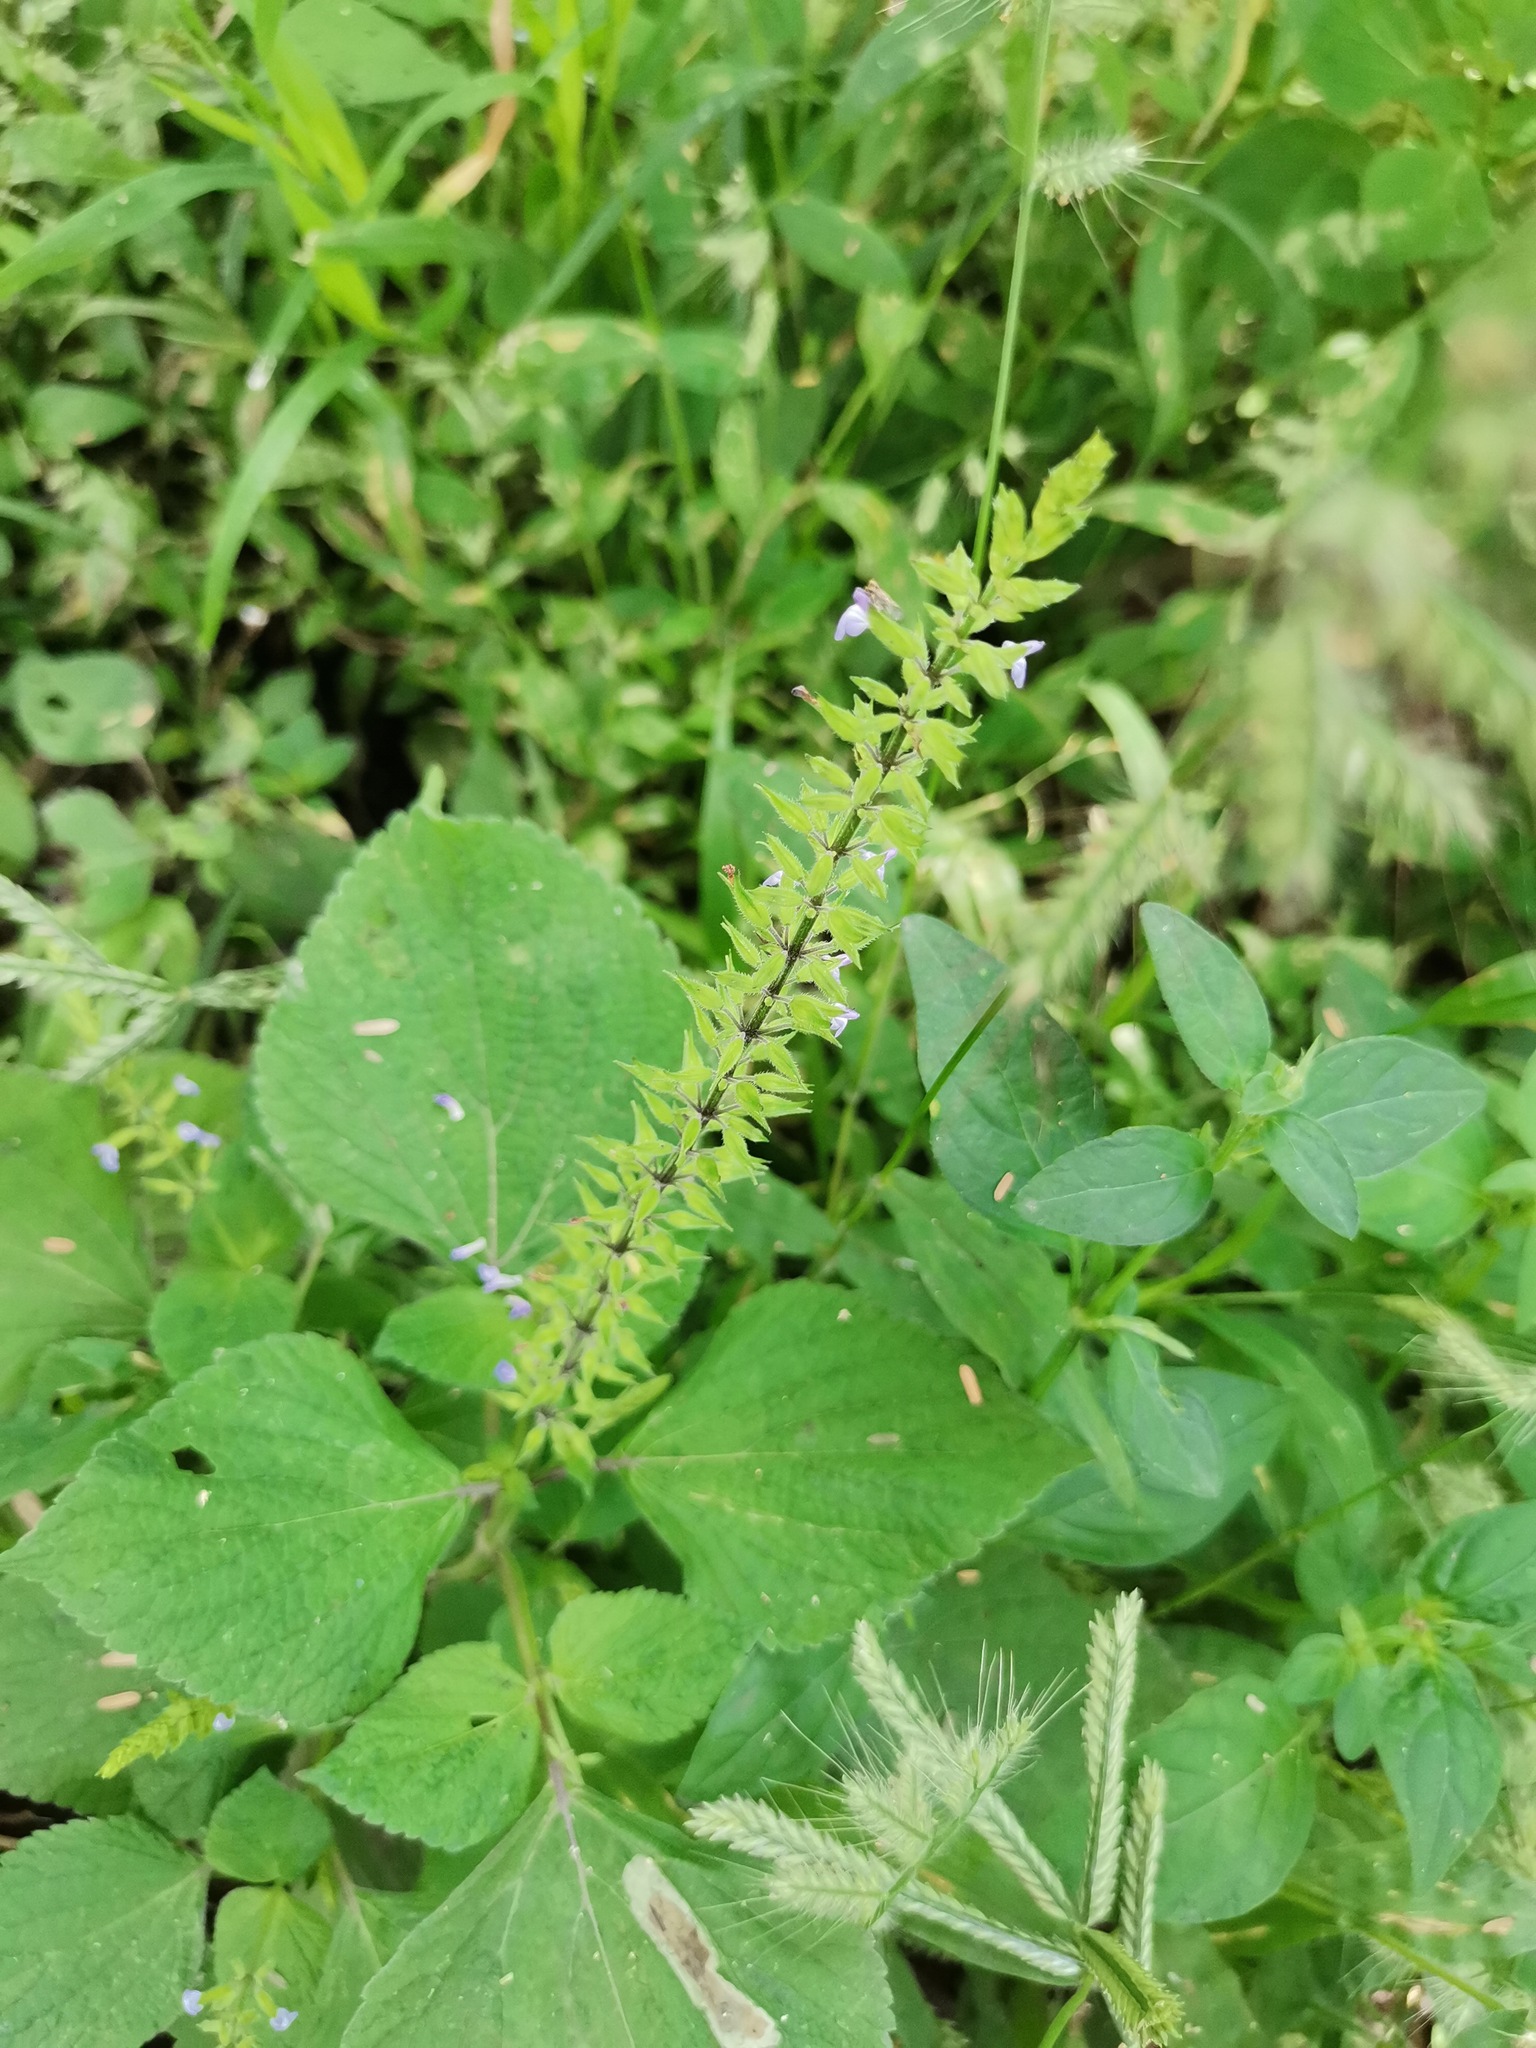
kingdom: Plantae
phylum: Tracheophyta
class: Magnoliopsida
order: Lamiales
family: Lamiaceae
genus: Salvia
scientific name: Salvia tiliifolia
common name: Lindenleaf sage
